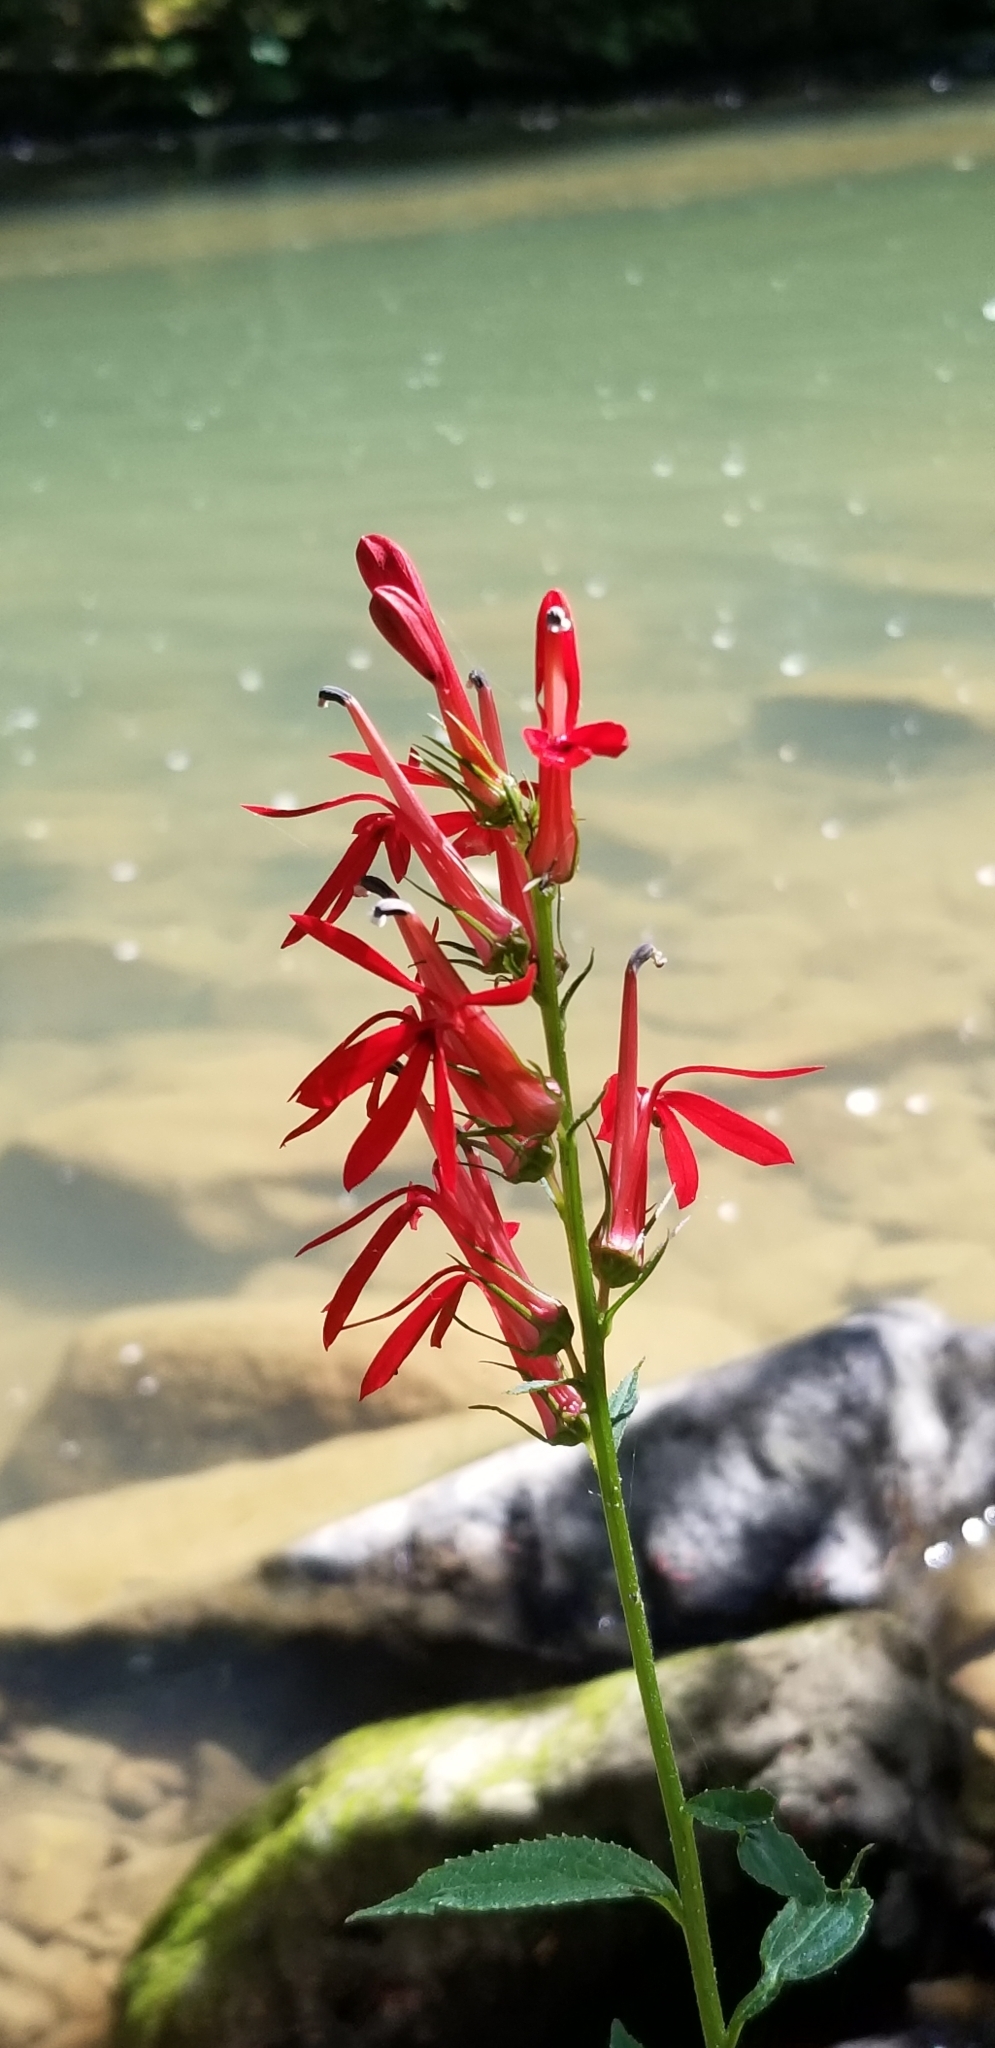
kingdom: Plantae
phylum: Tracheophyta
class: Magnoliopsida
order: Asterales
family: Campanulaceae
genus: Lobelia
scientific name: Lobelia cardinalis
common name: Cardinal flower
